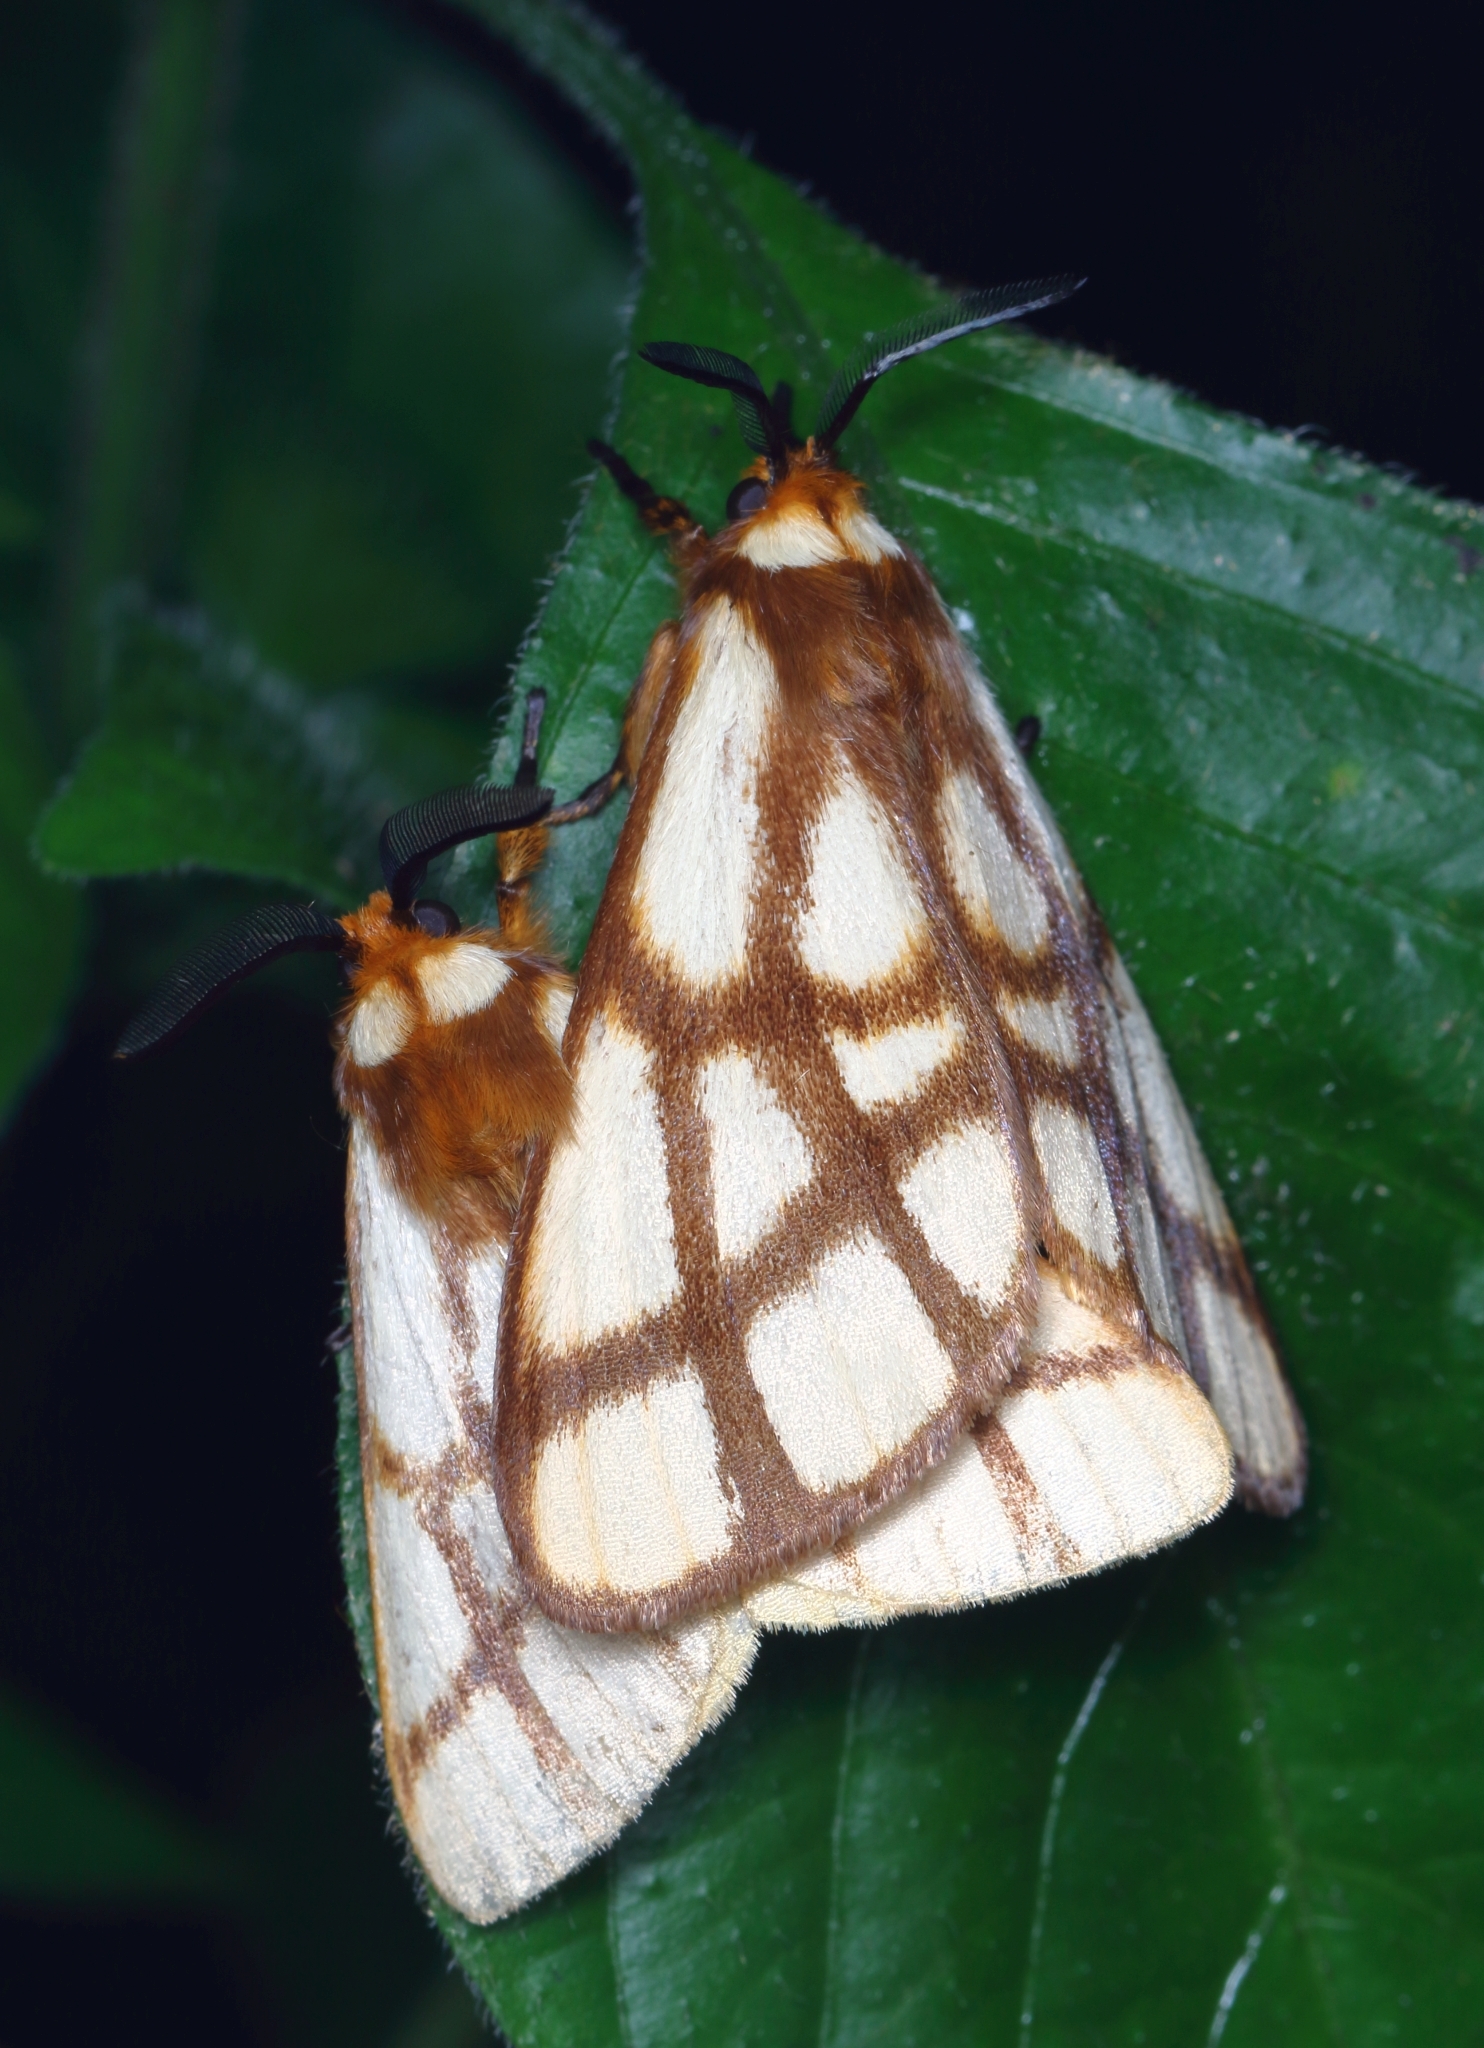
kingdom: Animalia
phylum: Arthropoda
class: Insecta
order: Lepidoptera
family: Notodontidae
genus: Anaphe
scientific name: Anaphe reticulata
